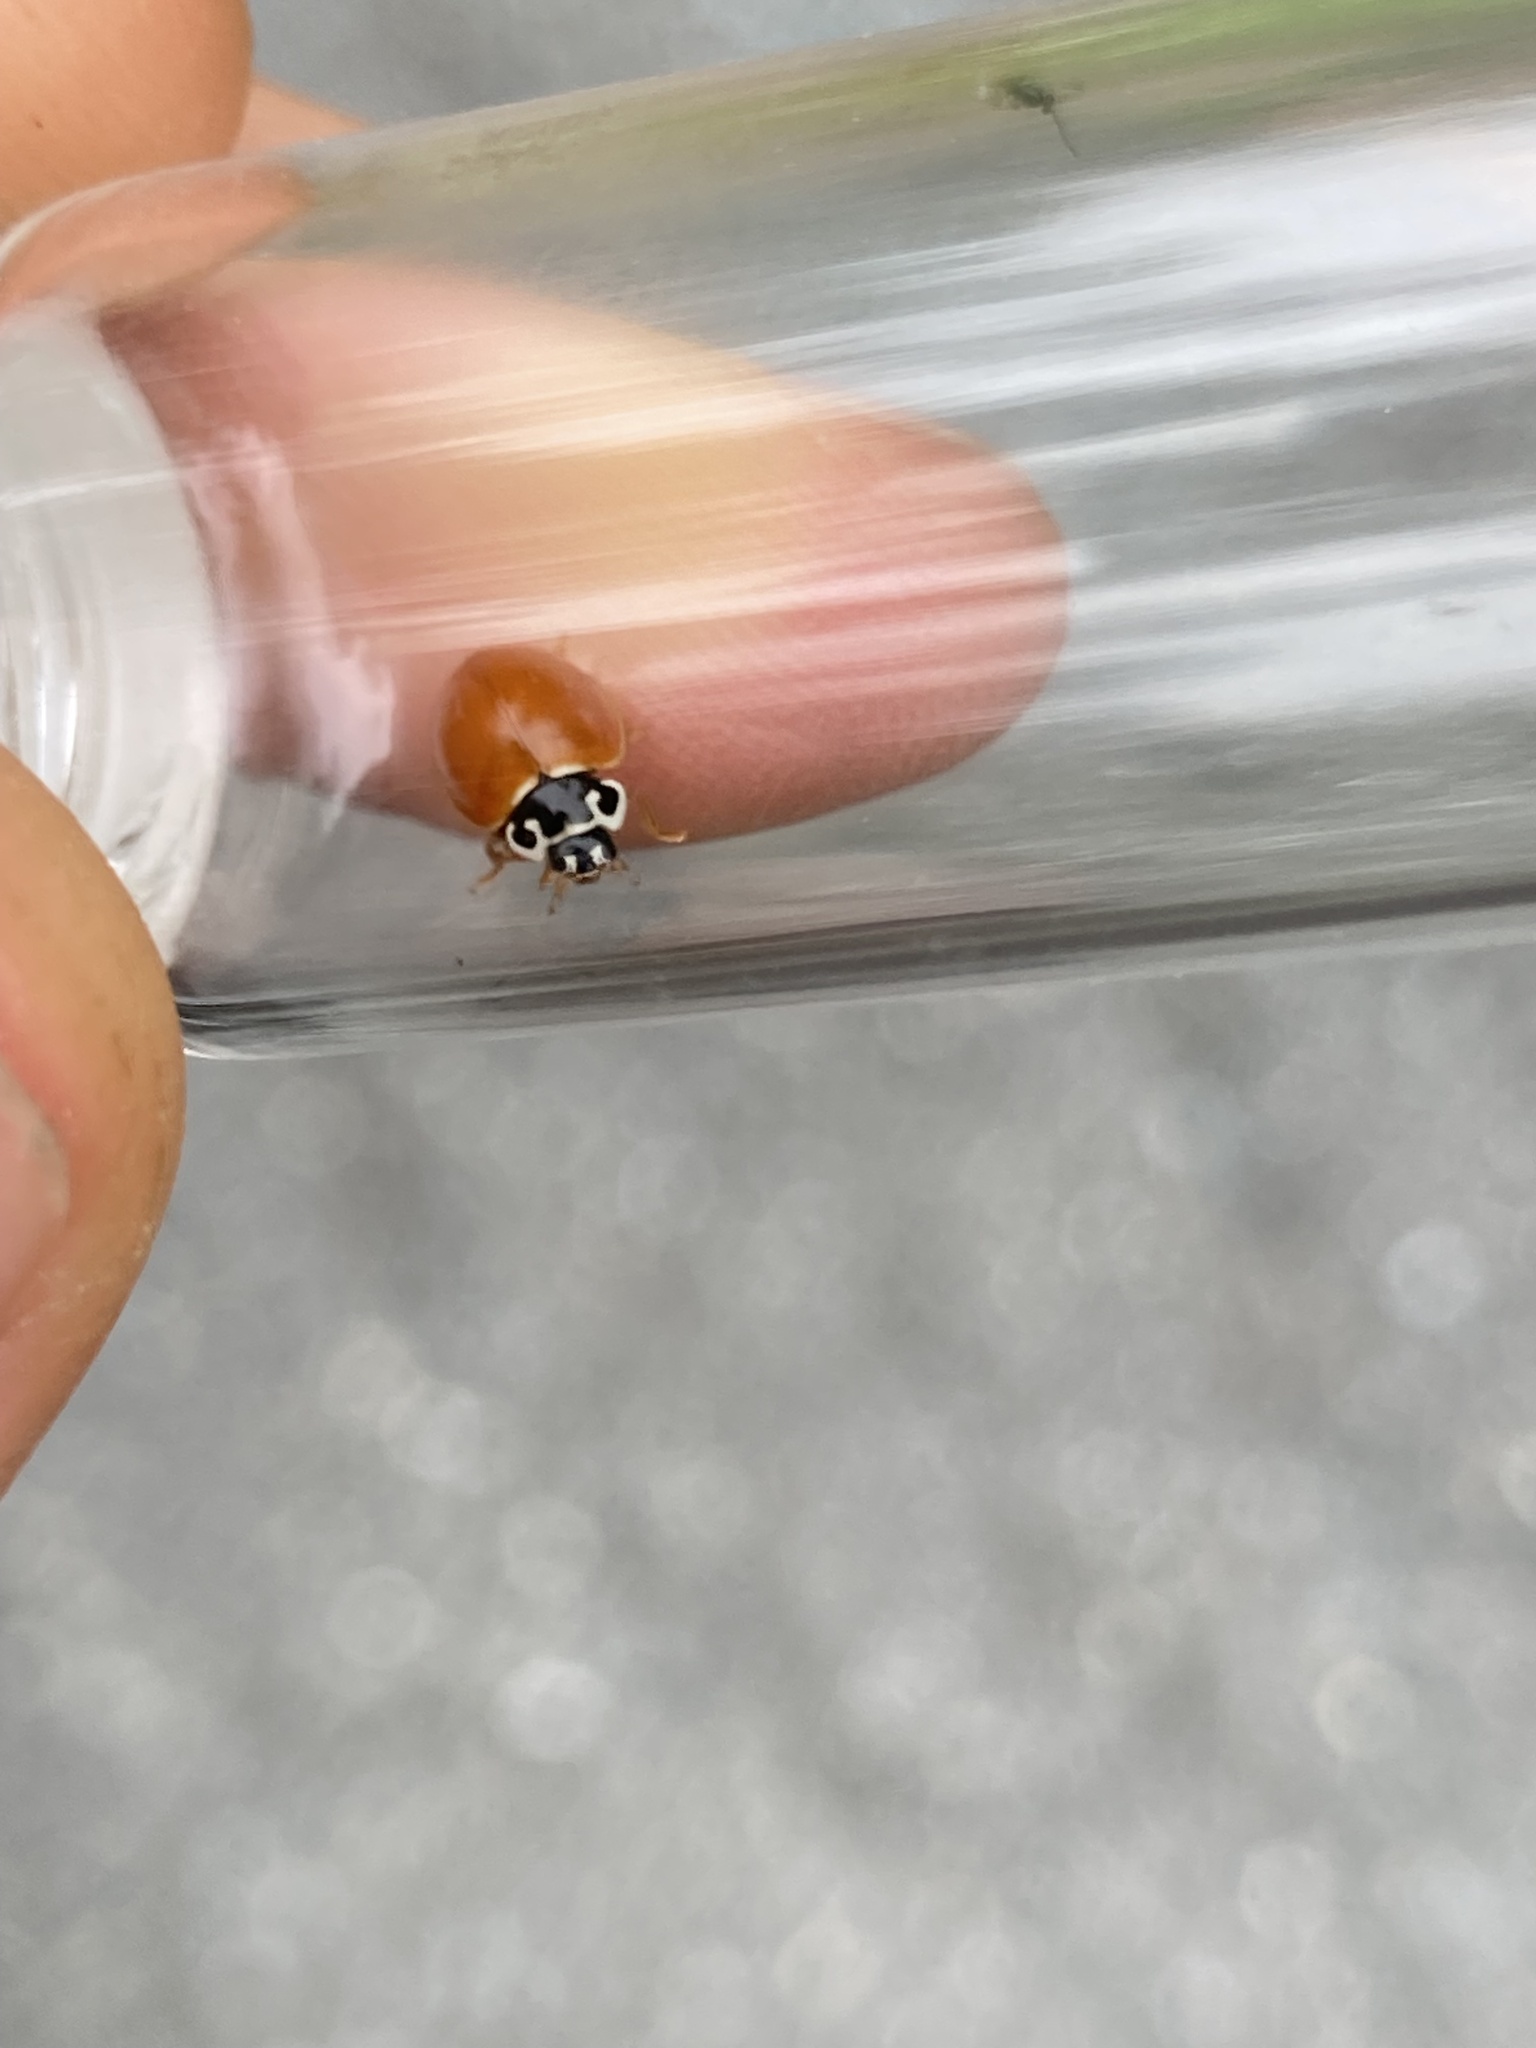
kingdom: Animalia
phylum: Arthropoda
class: Insecta
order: Coleoptera
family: Coccinellidae
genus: Cycloneda
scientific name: Cycloneda munda
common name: Polished lady beetle
